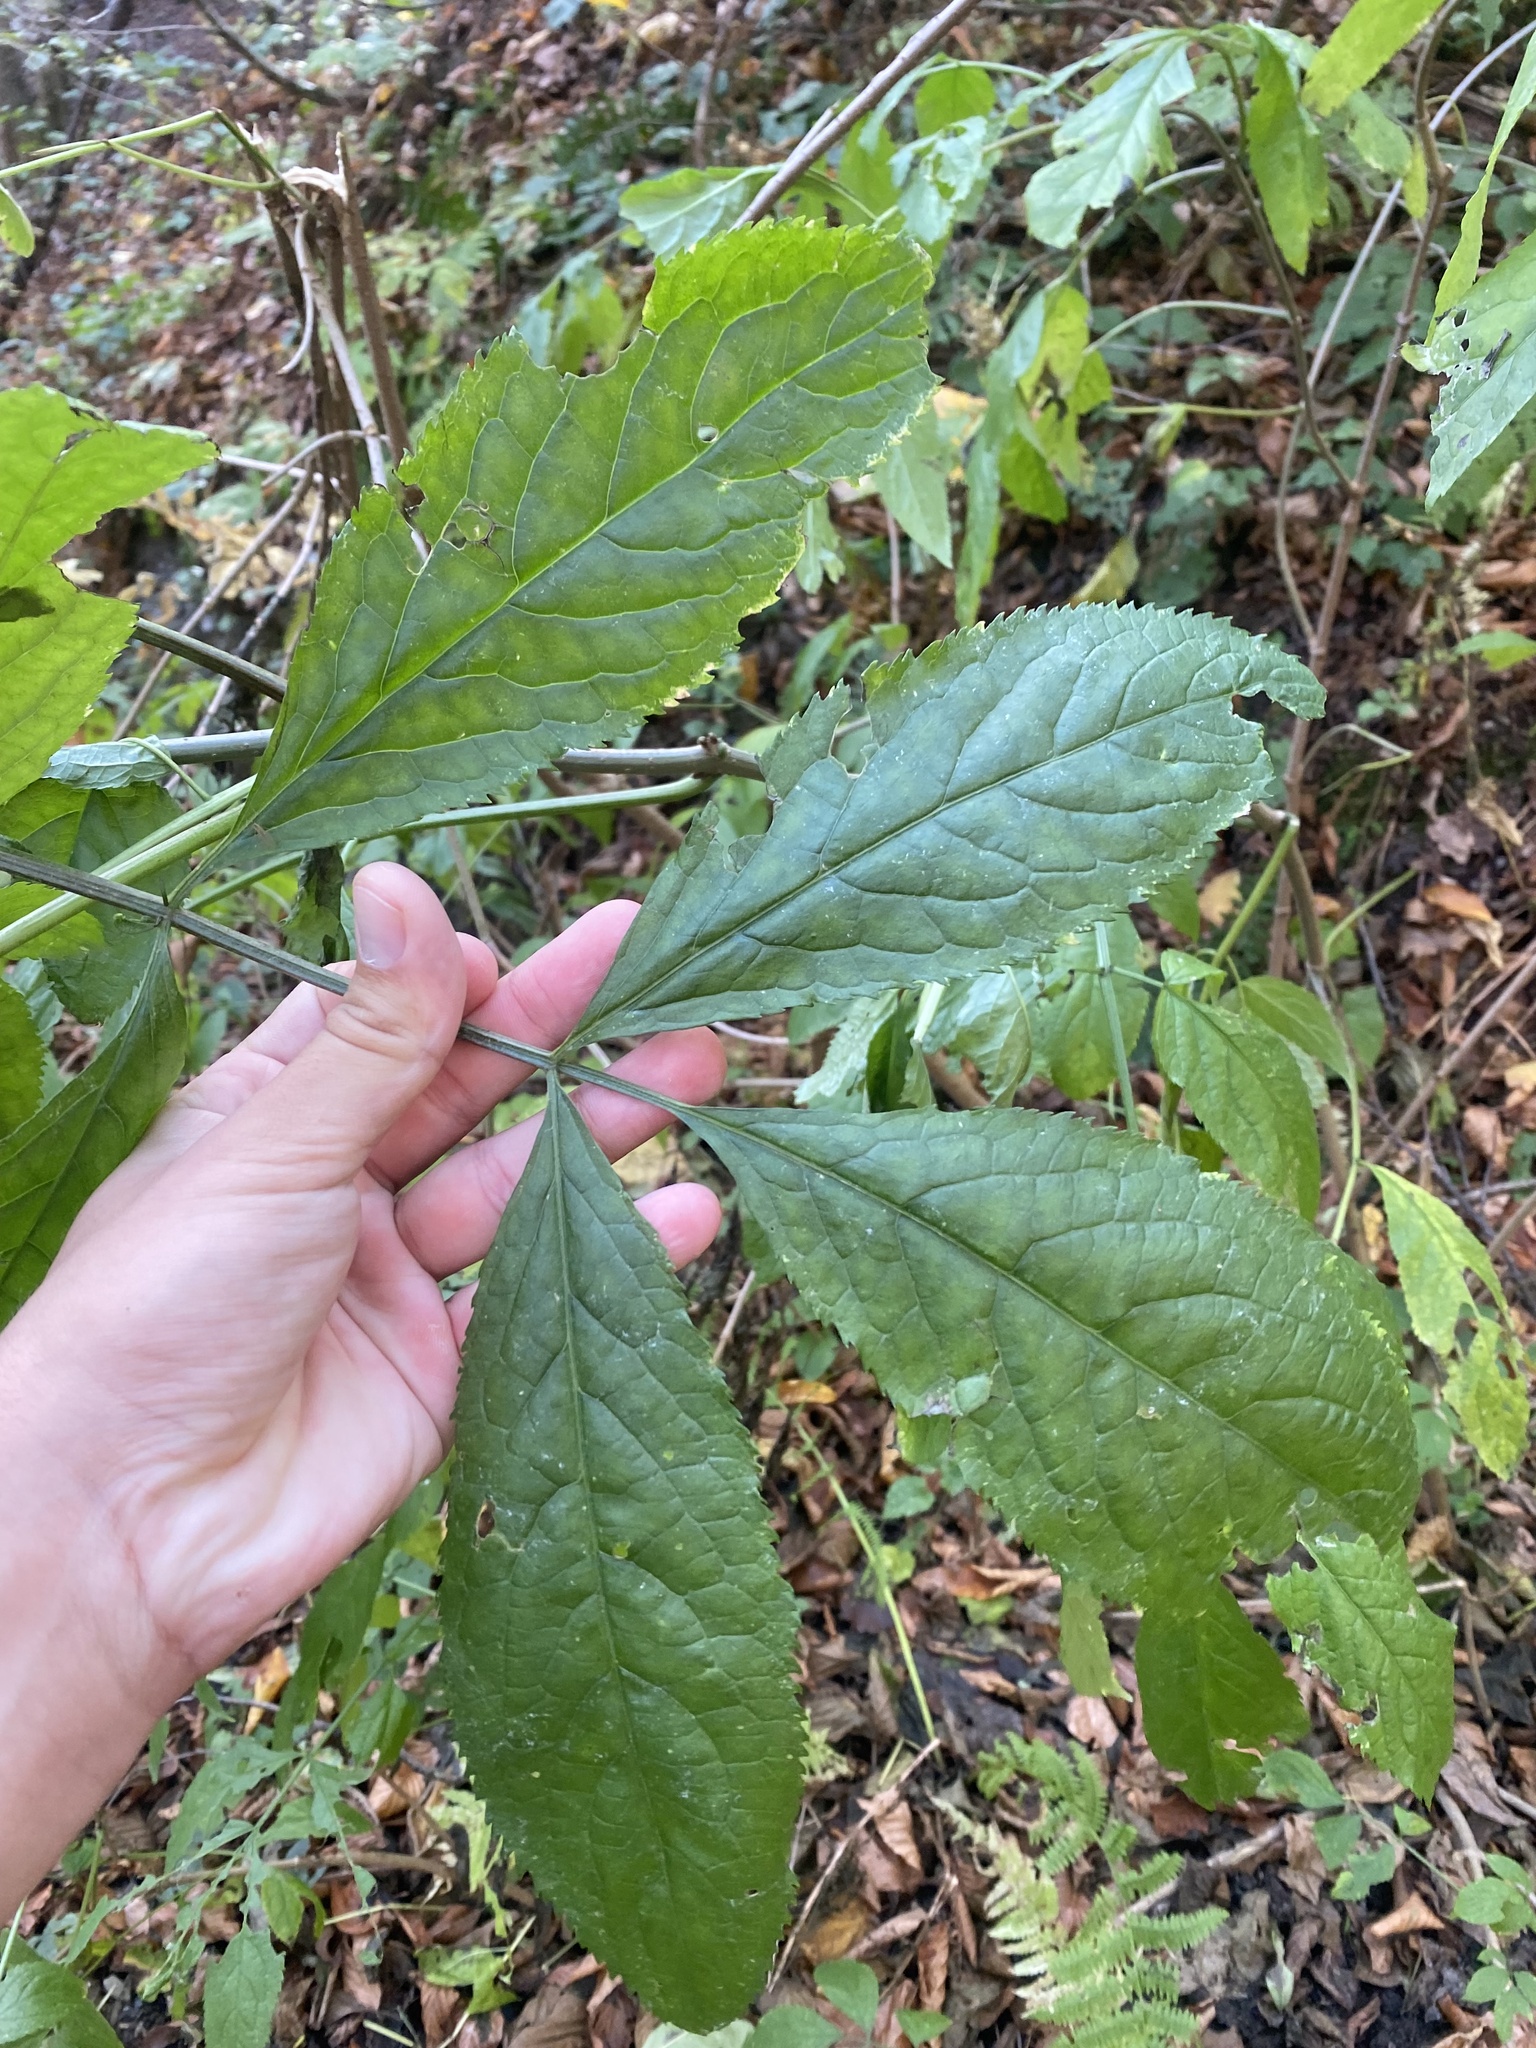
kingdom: Plantae
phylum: Tracheophyta
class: Magnoliopsida
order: Dipsacales
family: Viburnaceae
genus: Sambucus
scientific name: Sambucus nigra
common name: Elder
